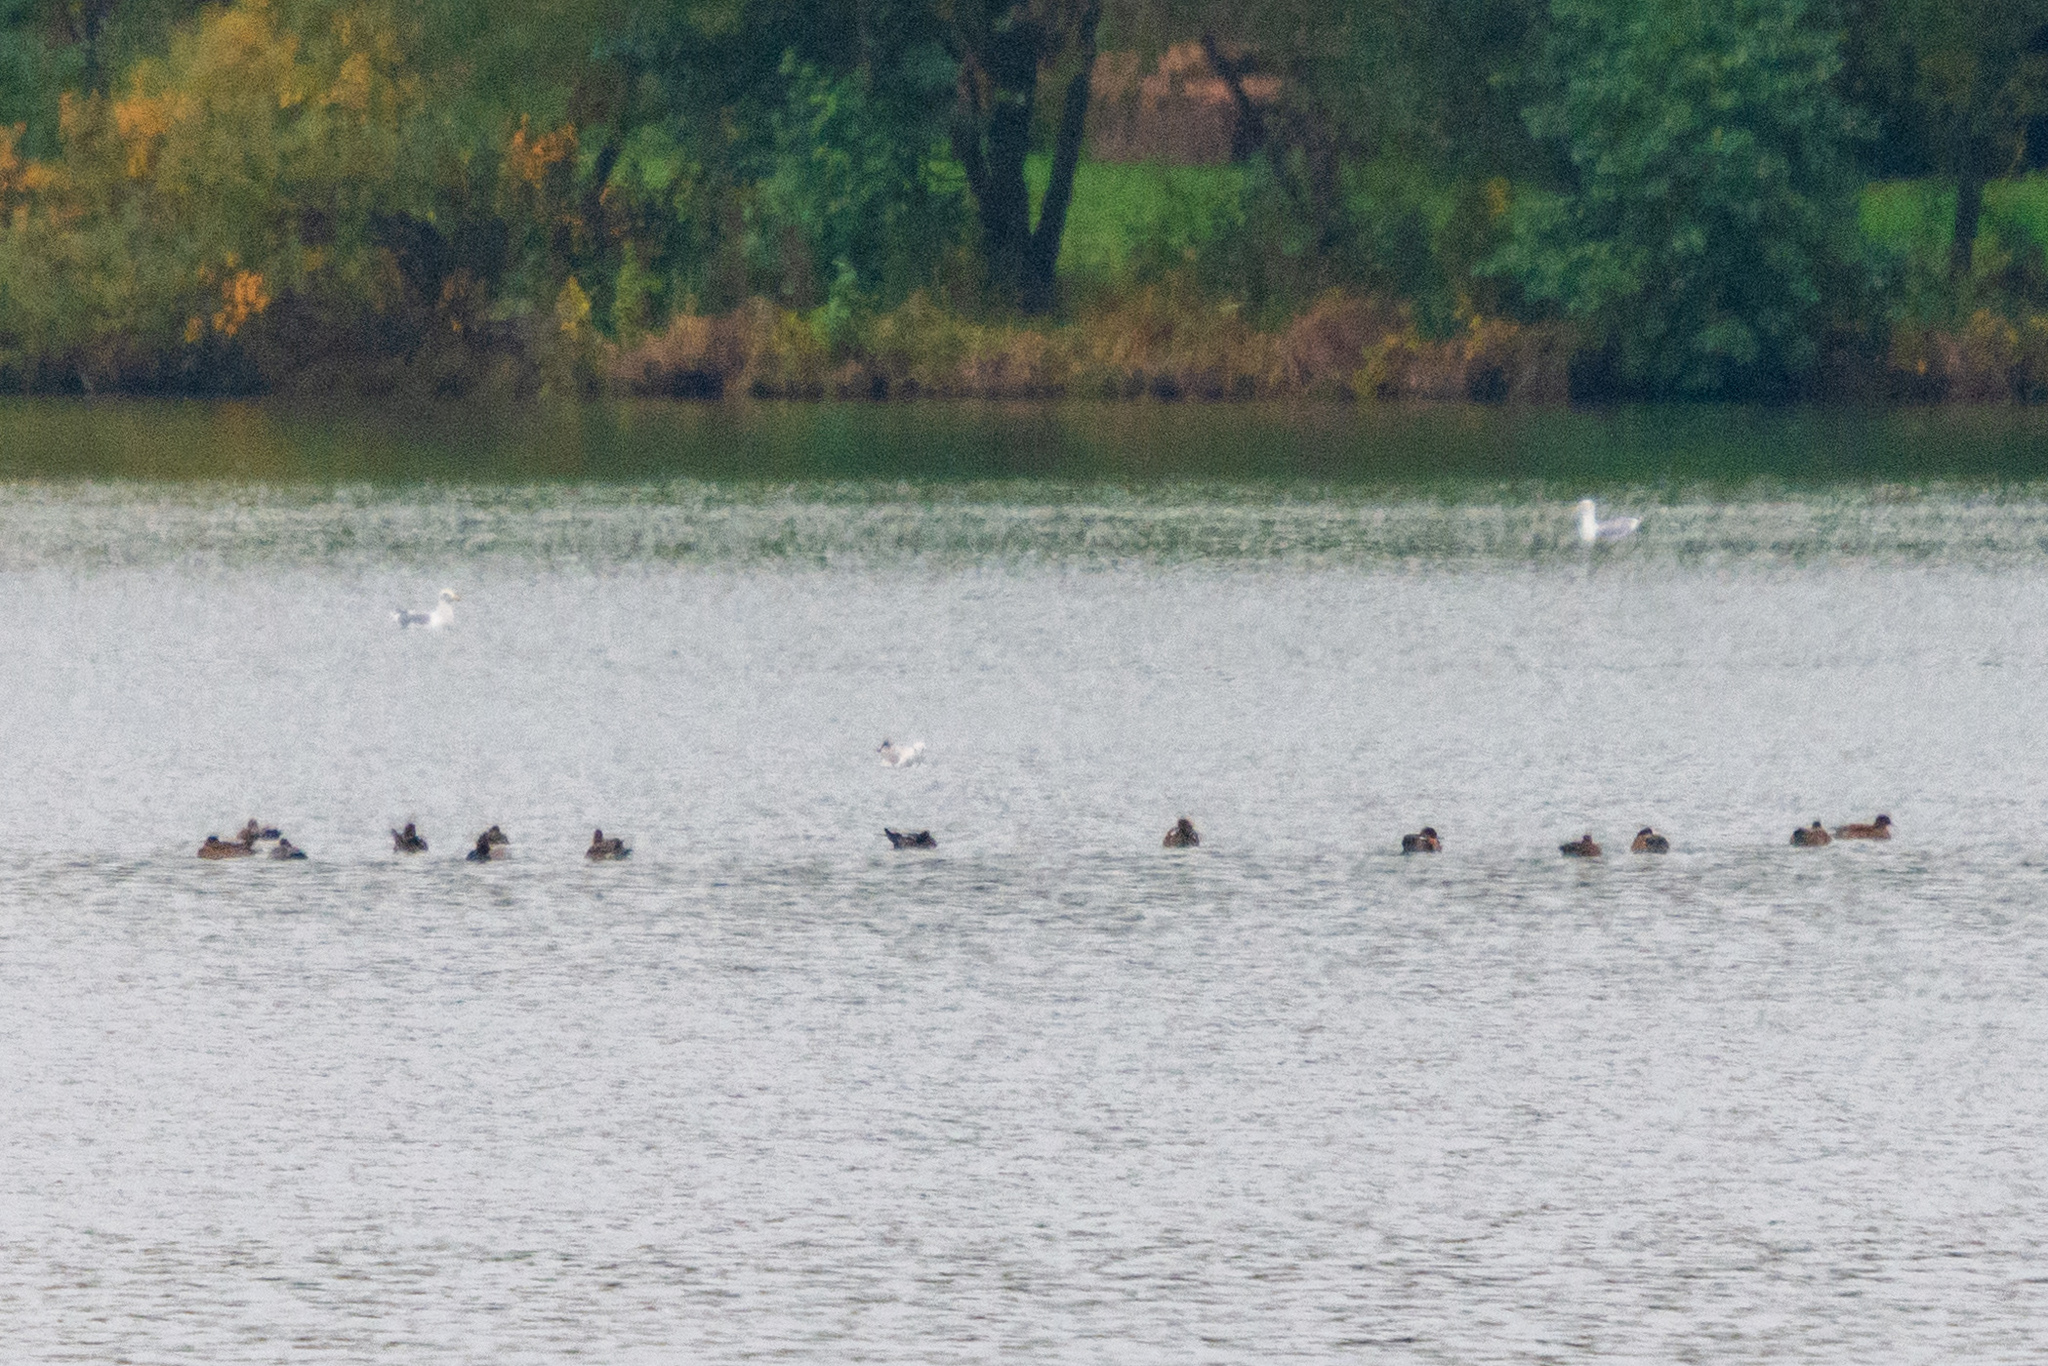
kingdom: Animalia
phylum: Chordata
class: Aves
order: Anseriformes
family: Anatidae
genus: Mareca
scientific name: Mareca penelope
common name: Eurasian wigeon
